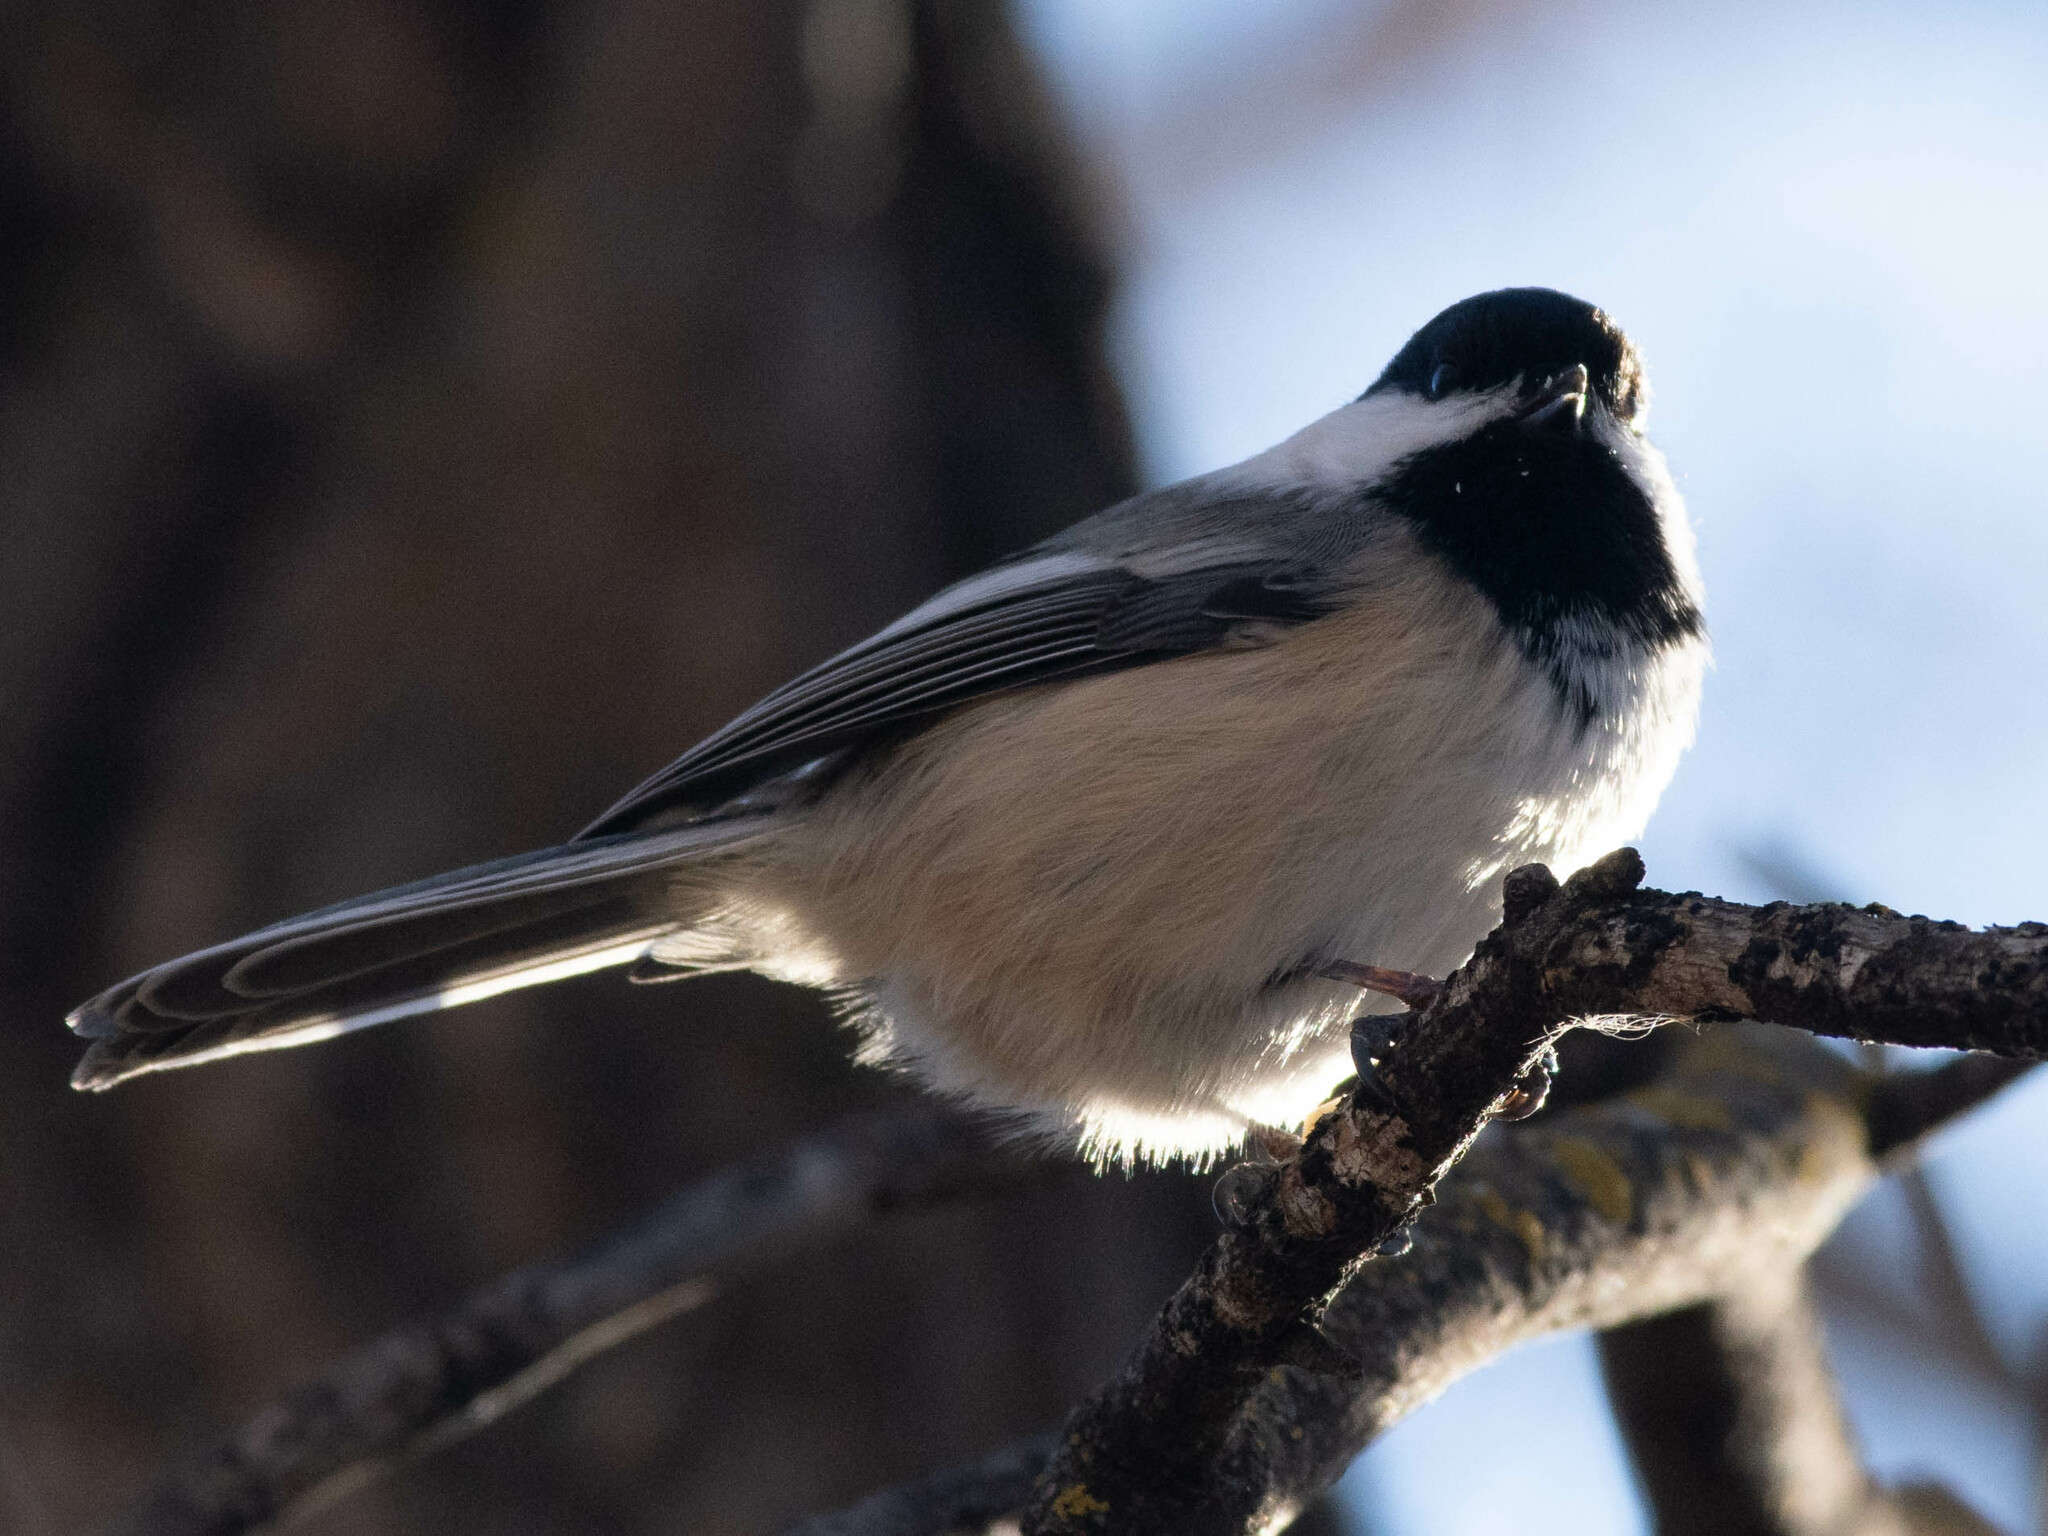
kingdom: Animalia
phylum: Chordata
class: Aves
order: Passeriformes
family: Paridae
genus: Poecile
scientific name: Poecile atricapillus
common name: Black-capped chickadee
